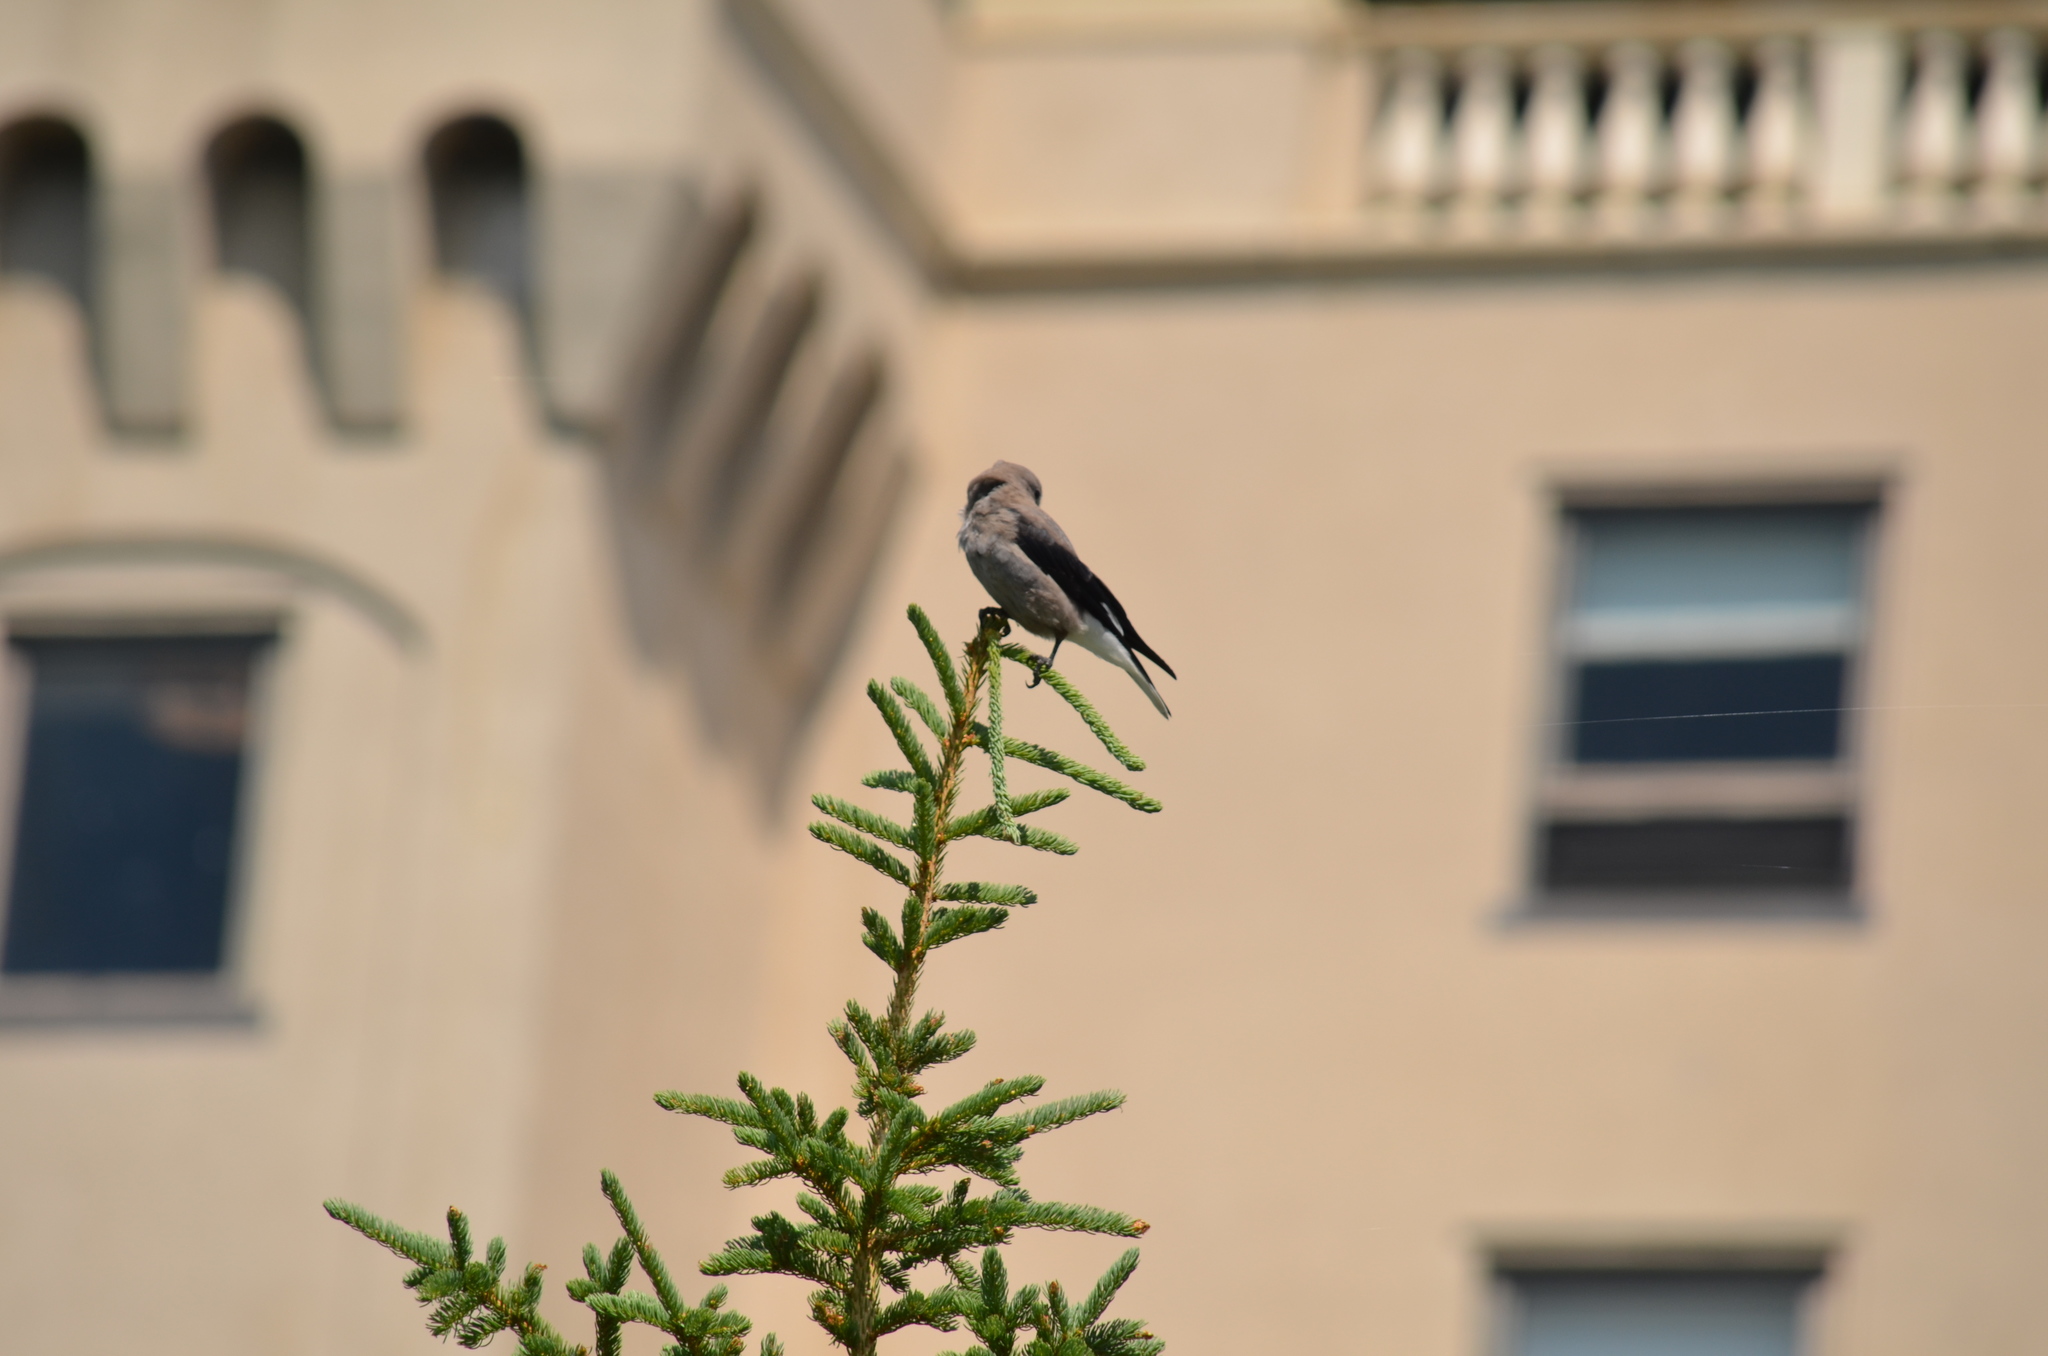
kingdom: Animalia
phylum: Chordata
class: Aves
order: Passeriformes
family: Corvidae
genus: Nucifraga
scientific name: Nucifraga columbiana
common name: Clark's nutcracker
